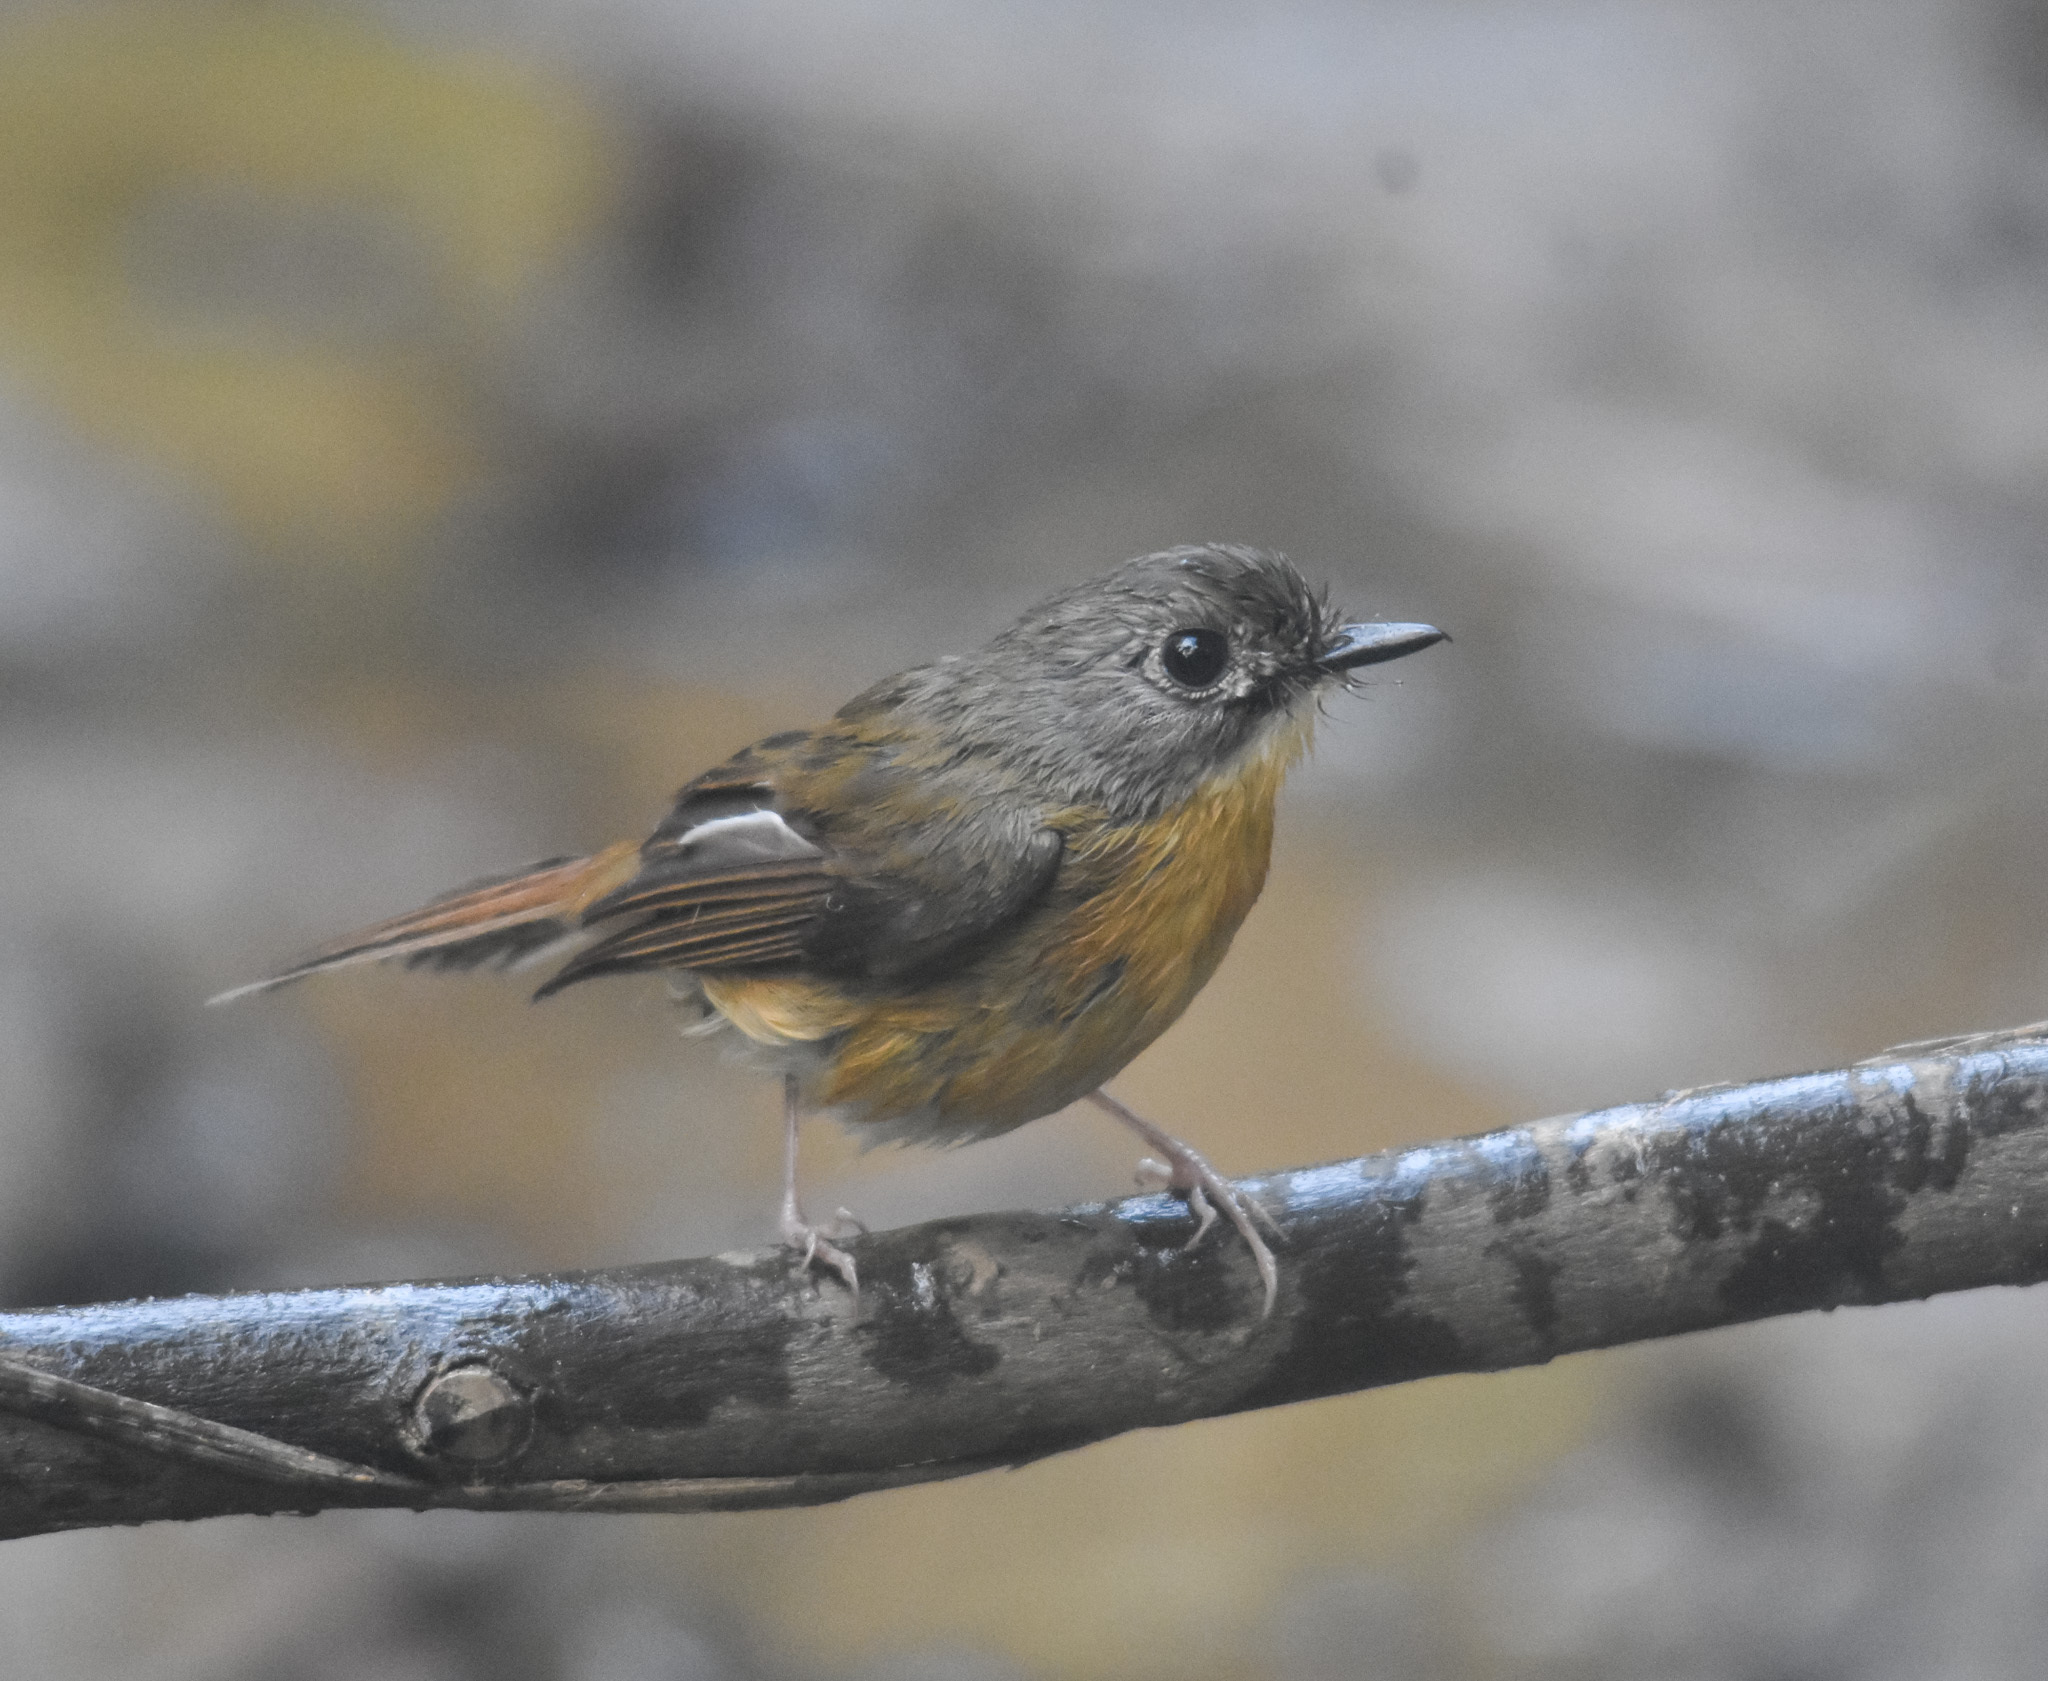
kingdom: Animalia
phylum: Chordata
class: Aves
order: Passeriformes
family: Muscicapidae
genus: Cyornis
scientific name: Cyornis poliogenys
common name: Pale-chinned blue flycatcher
